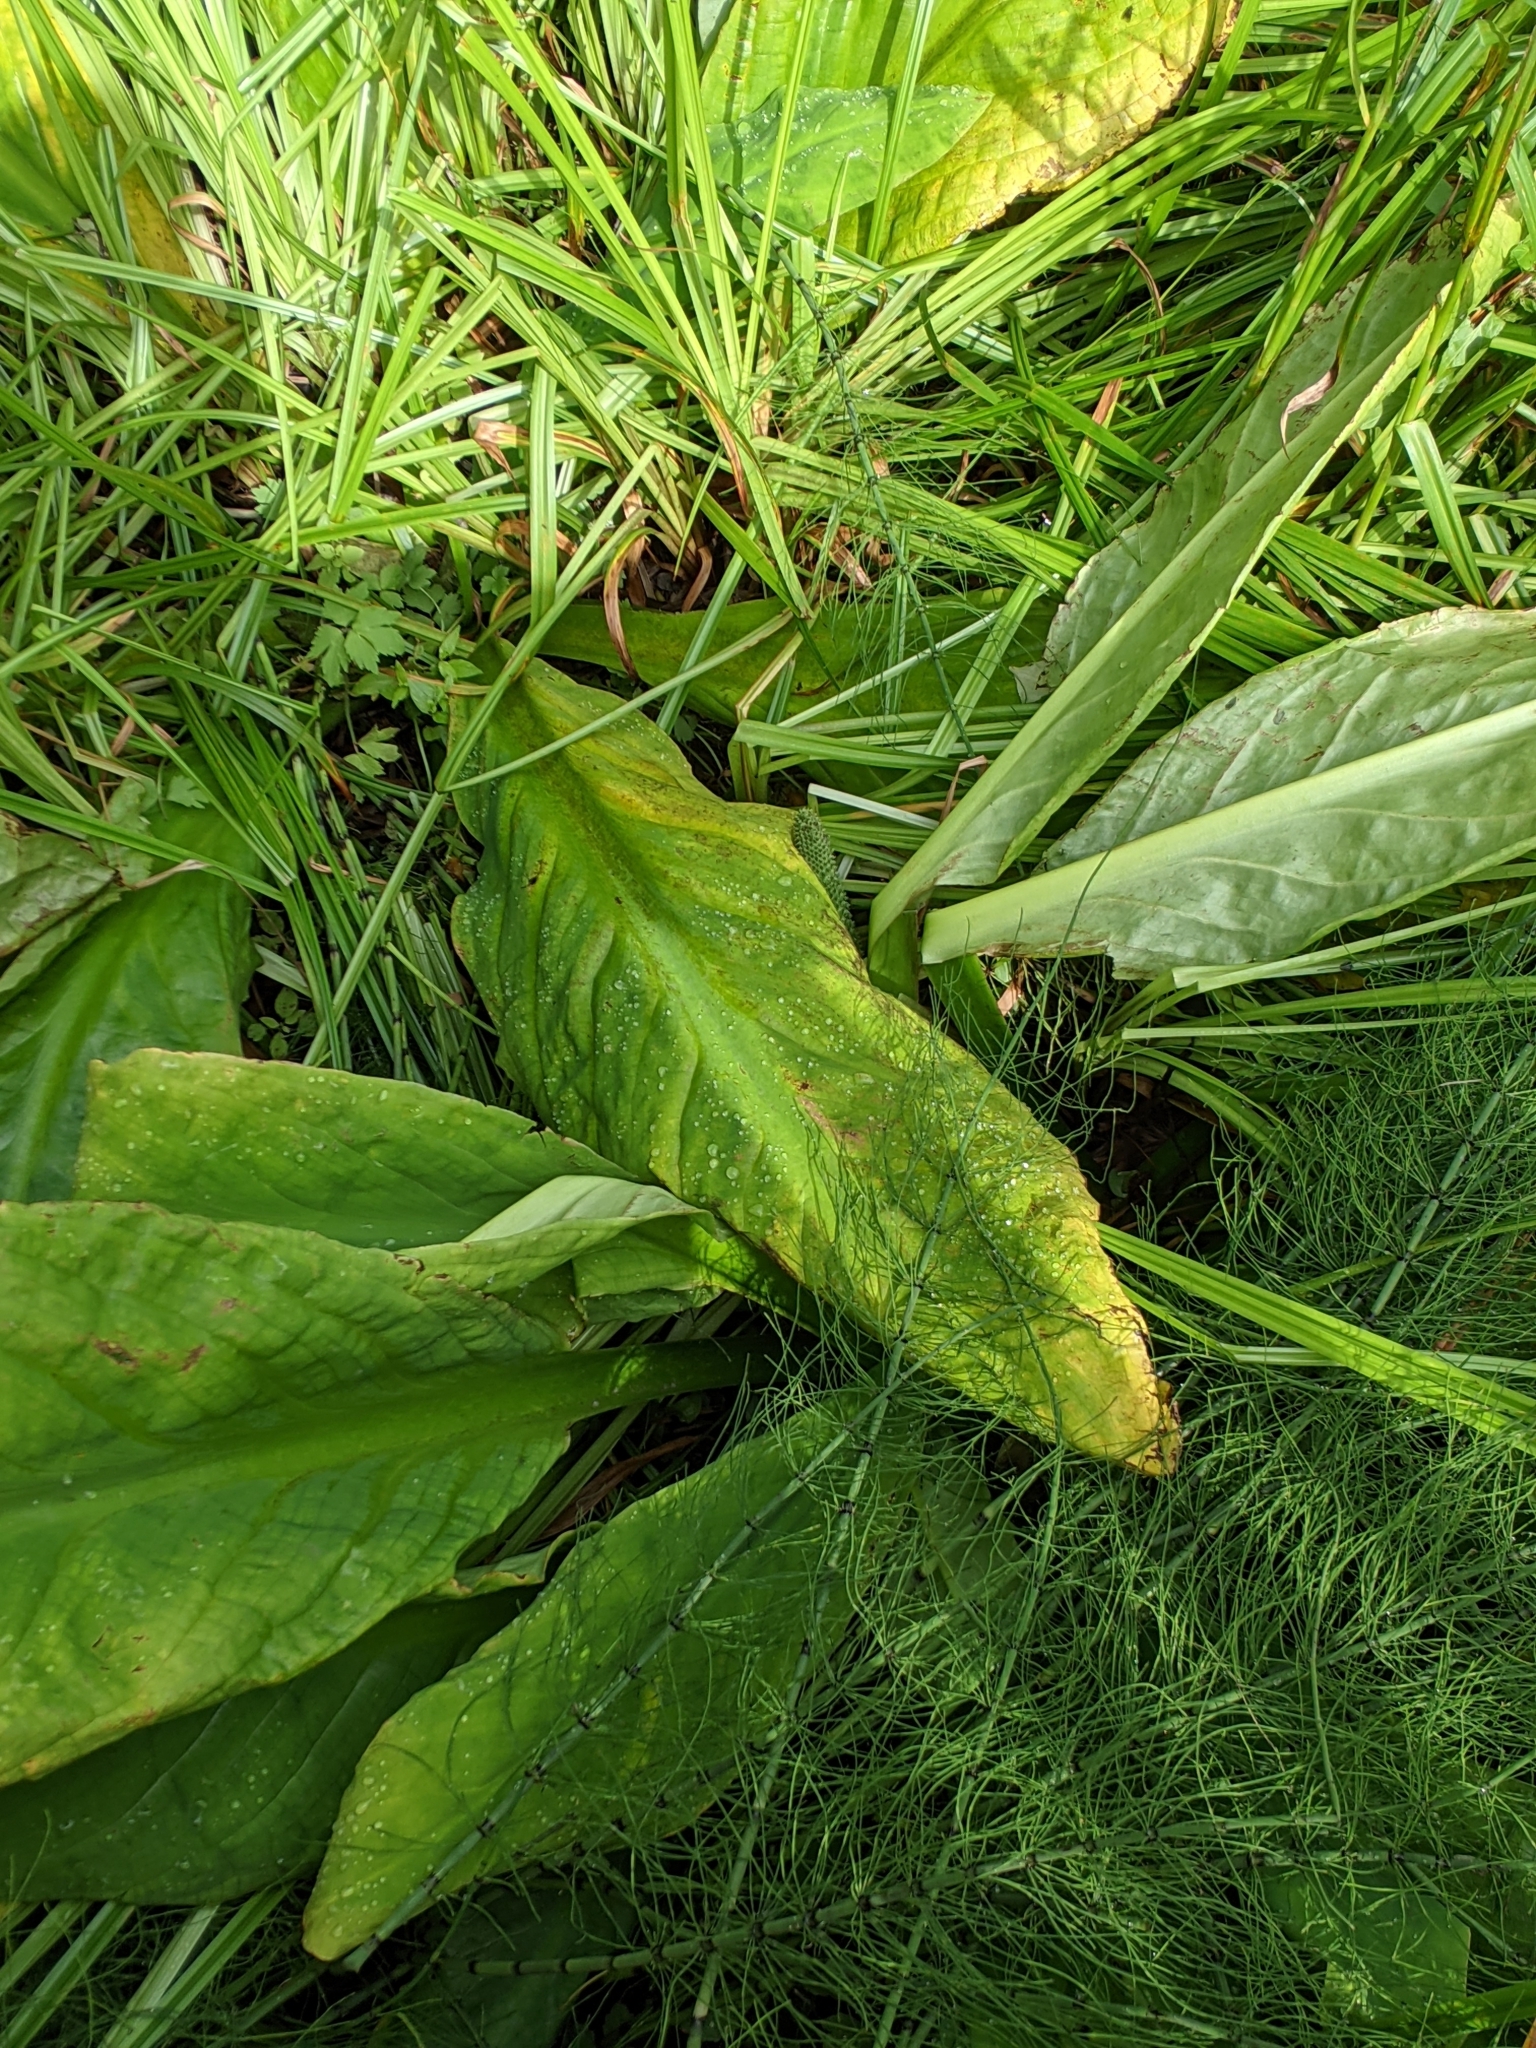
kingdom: Plantae
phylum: Tracheophyta
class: Liliopsida
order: Alismatales
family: Araceae
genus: Lysichiton
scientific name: Lysichiton americanus
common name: American skunk cabbage
